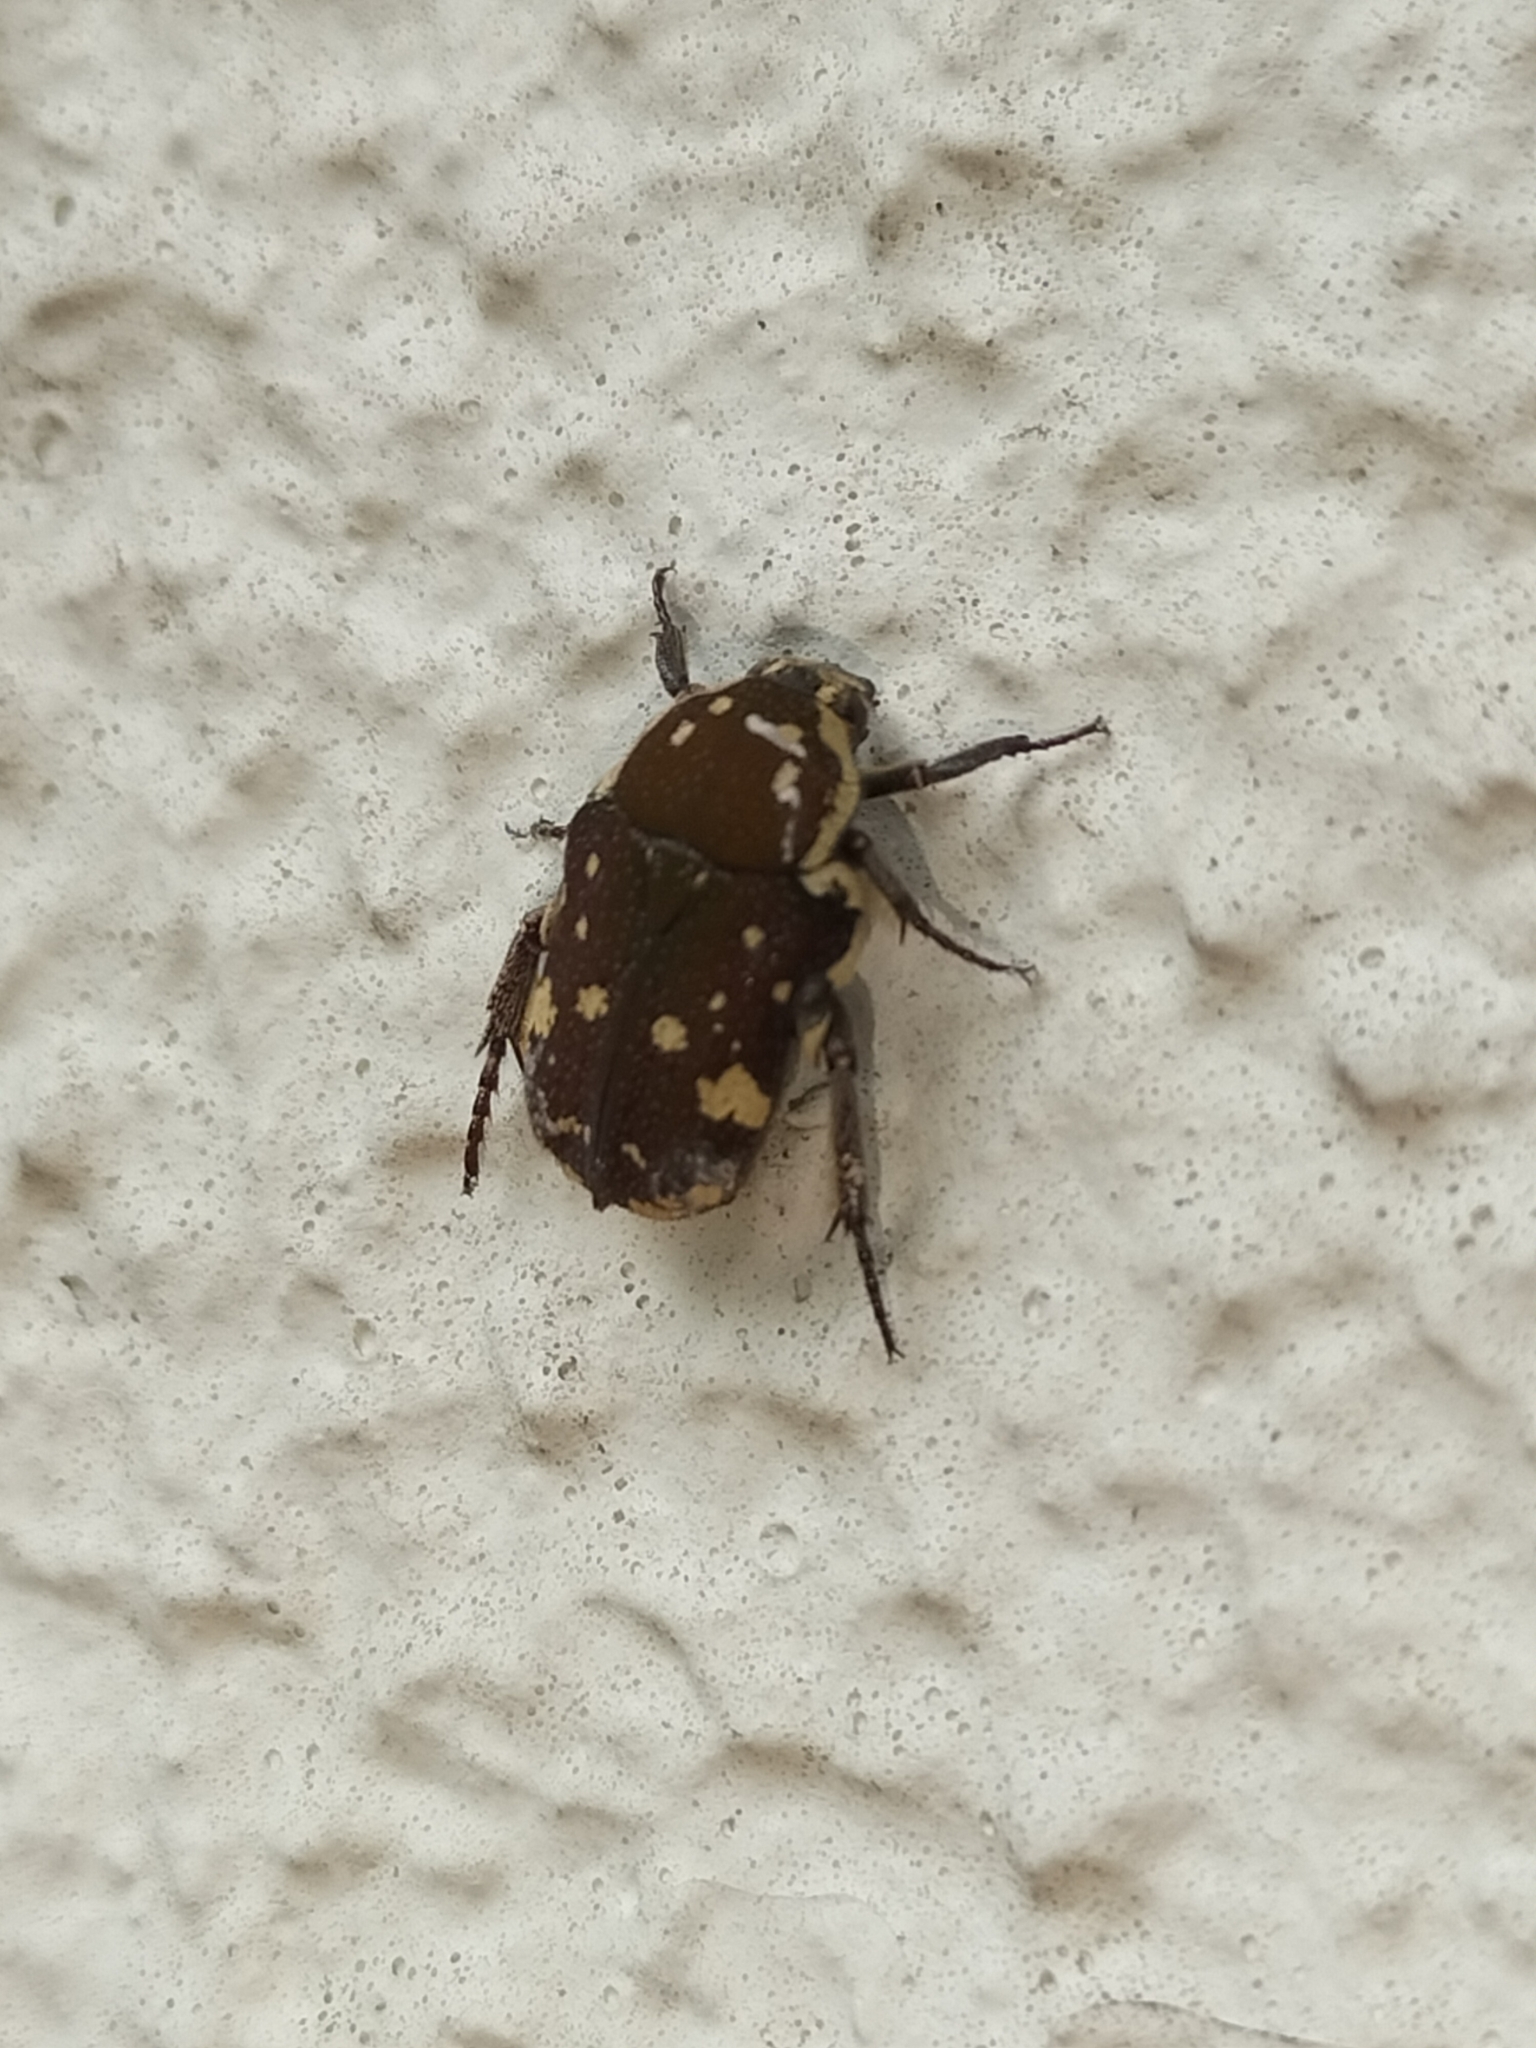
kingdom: Animalia
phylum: Arthropoda
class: Insecta
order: Coleoptera
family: Scarabaeidae
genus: Glycyphana
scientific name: Glycyphana stolata
